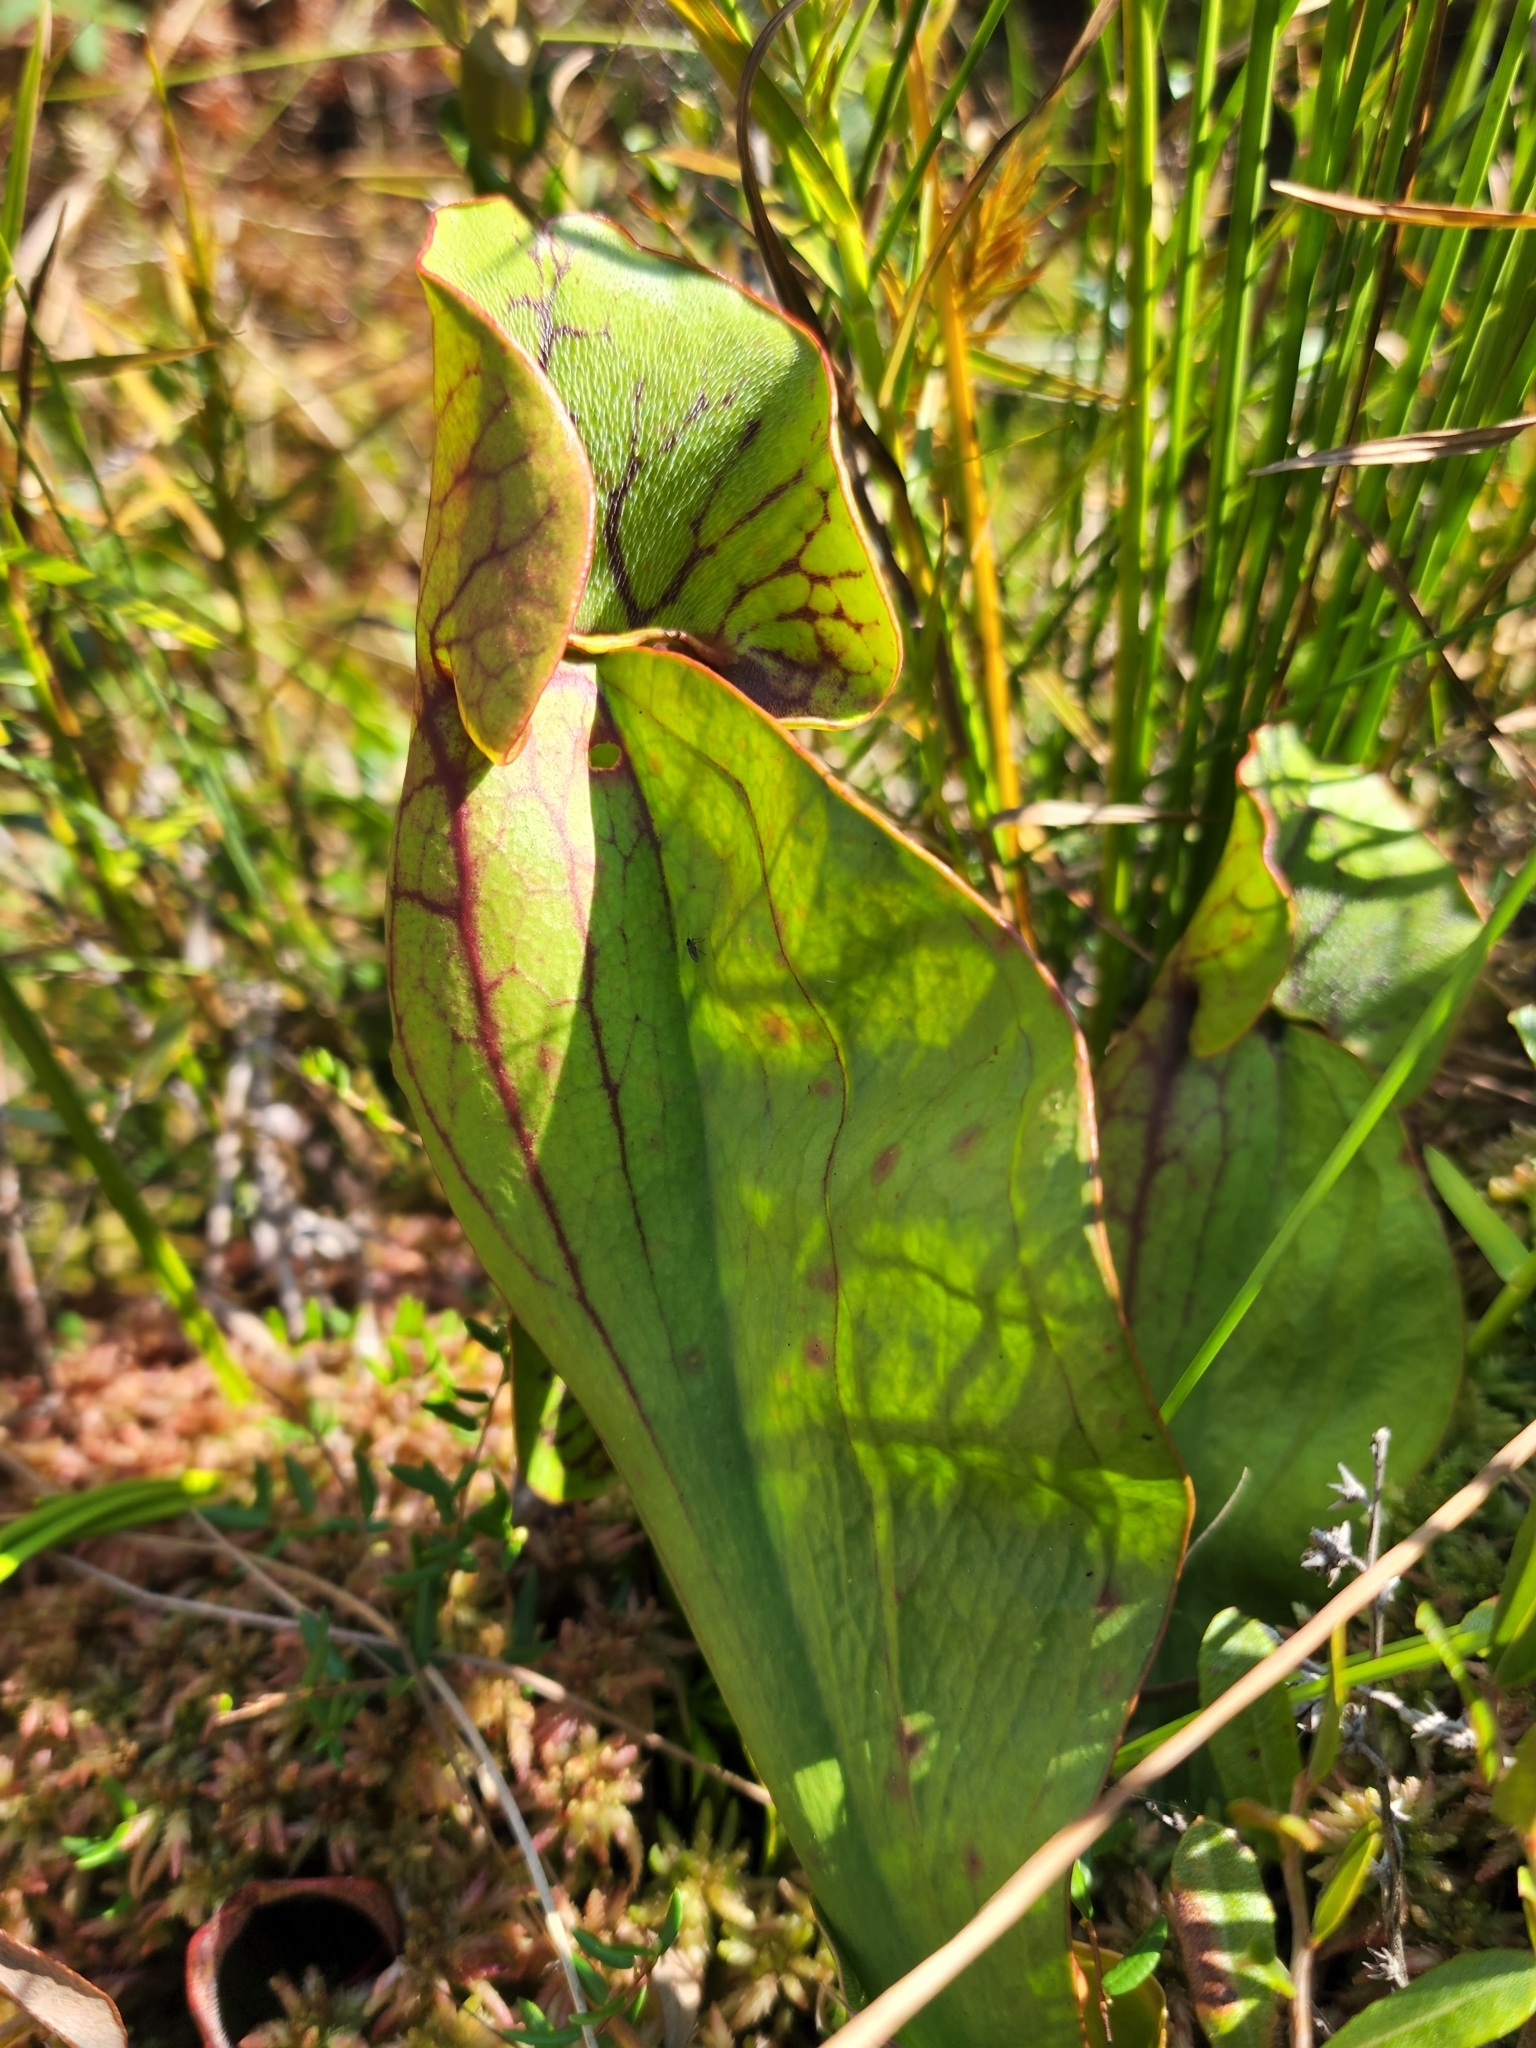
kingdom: Plantae
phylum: Tracheophyta
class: Magnoliopsida
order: Ericales
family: Sarraceniaceae
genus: Sarracenia
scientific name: Sarracenia purpurea
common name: Pitcherplant
